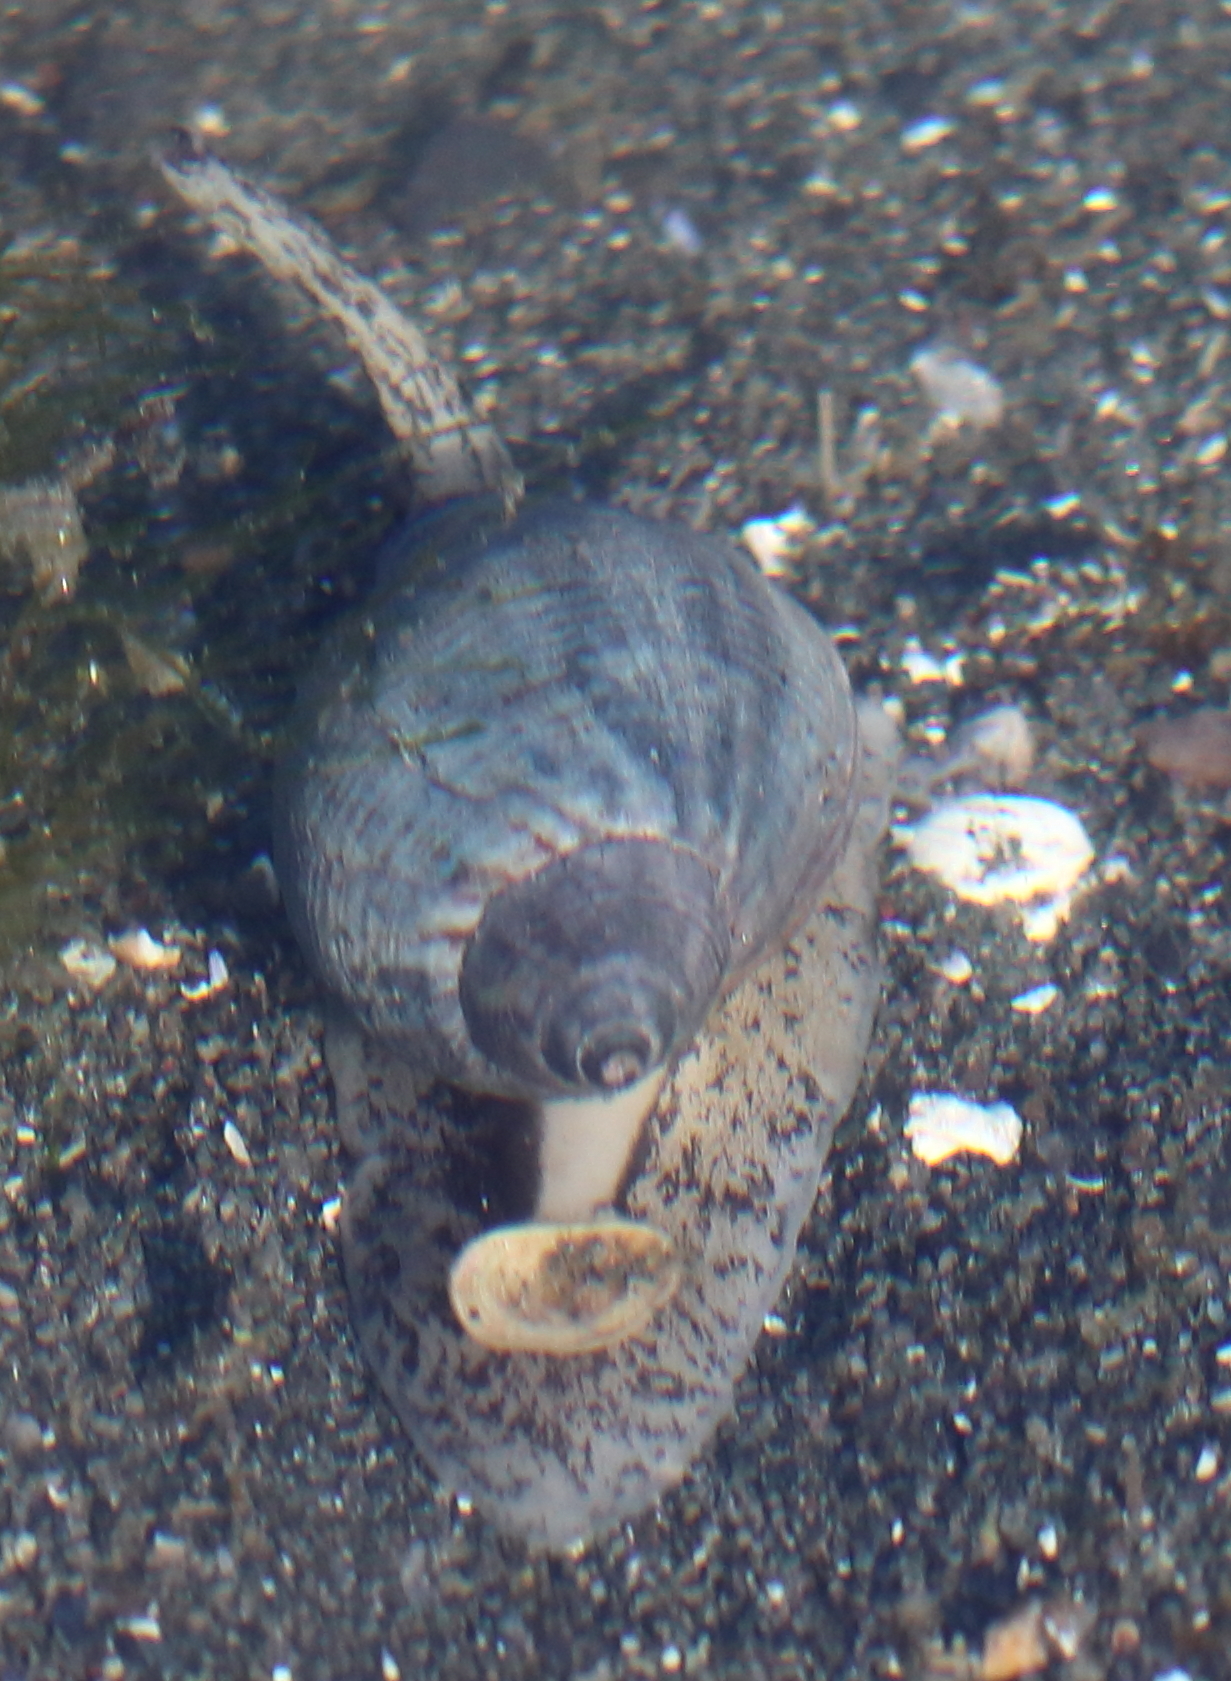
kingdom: Animalia
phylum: Mollusca
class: Gastropoda
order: Neogastropoda
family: Buccinidae
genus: Buccinum
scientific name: Buccinum baerii
